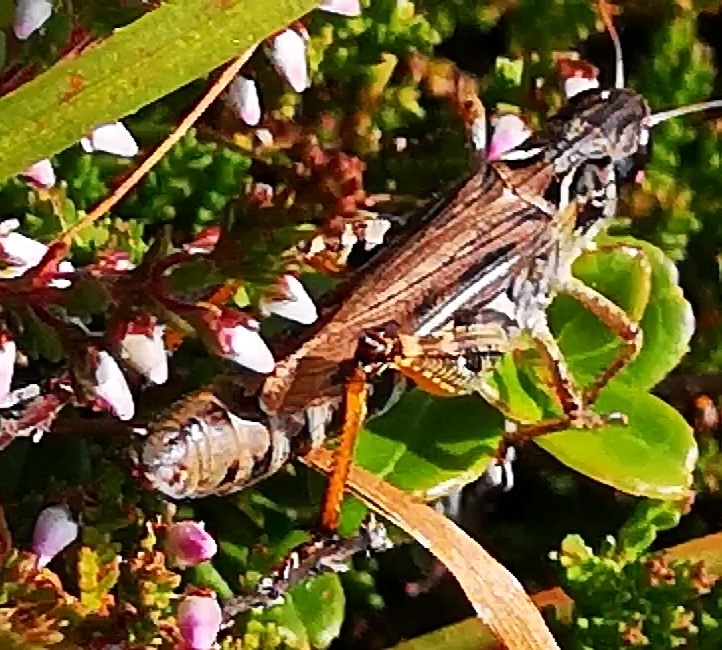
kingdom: Animalia
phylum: Arthropoda
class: Insecta
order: Orthoptera
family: Acrididae
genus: Gomphocerus
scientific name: Gomphocerus sibiricus
